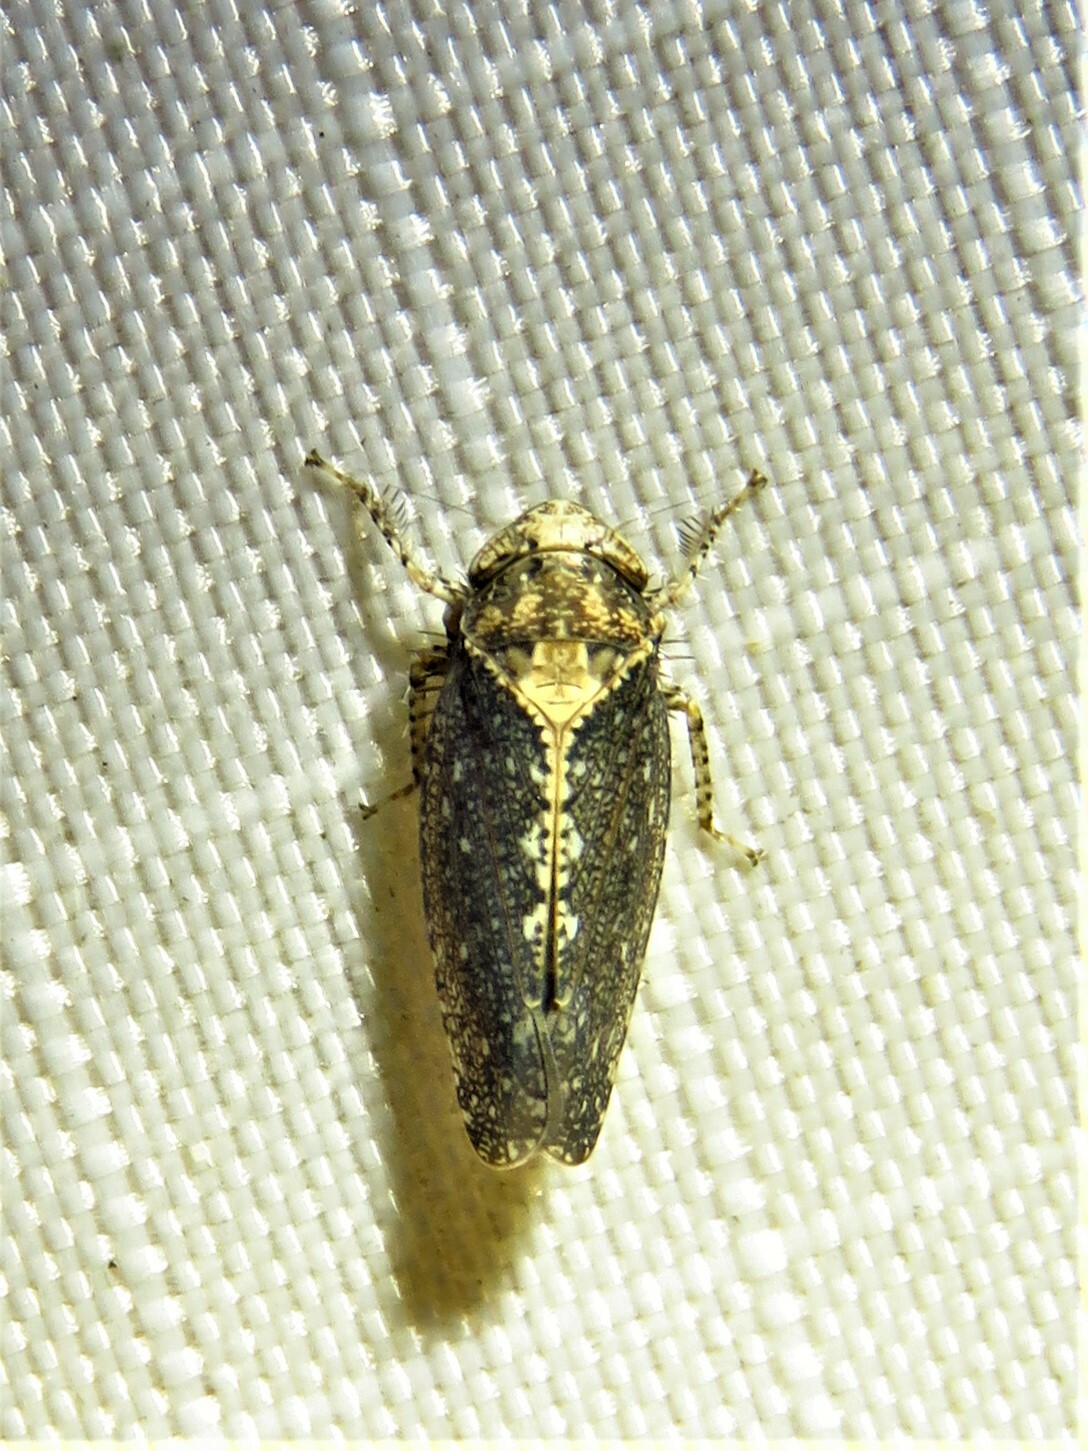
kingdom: Animalia
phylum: Arthropoda
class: Insecta
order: Hemiptera
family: Cicadellidae
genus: Excultanus
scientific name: Excultanus excultus
